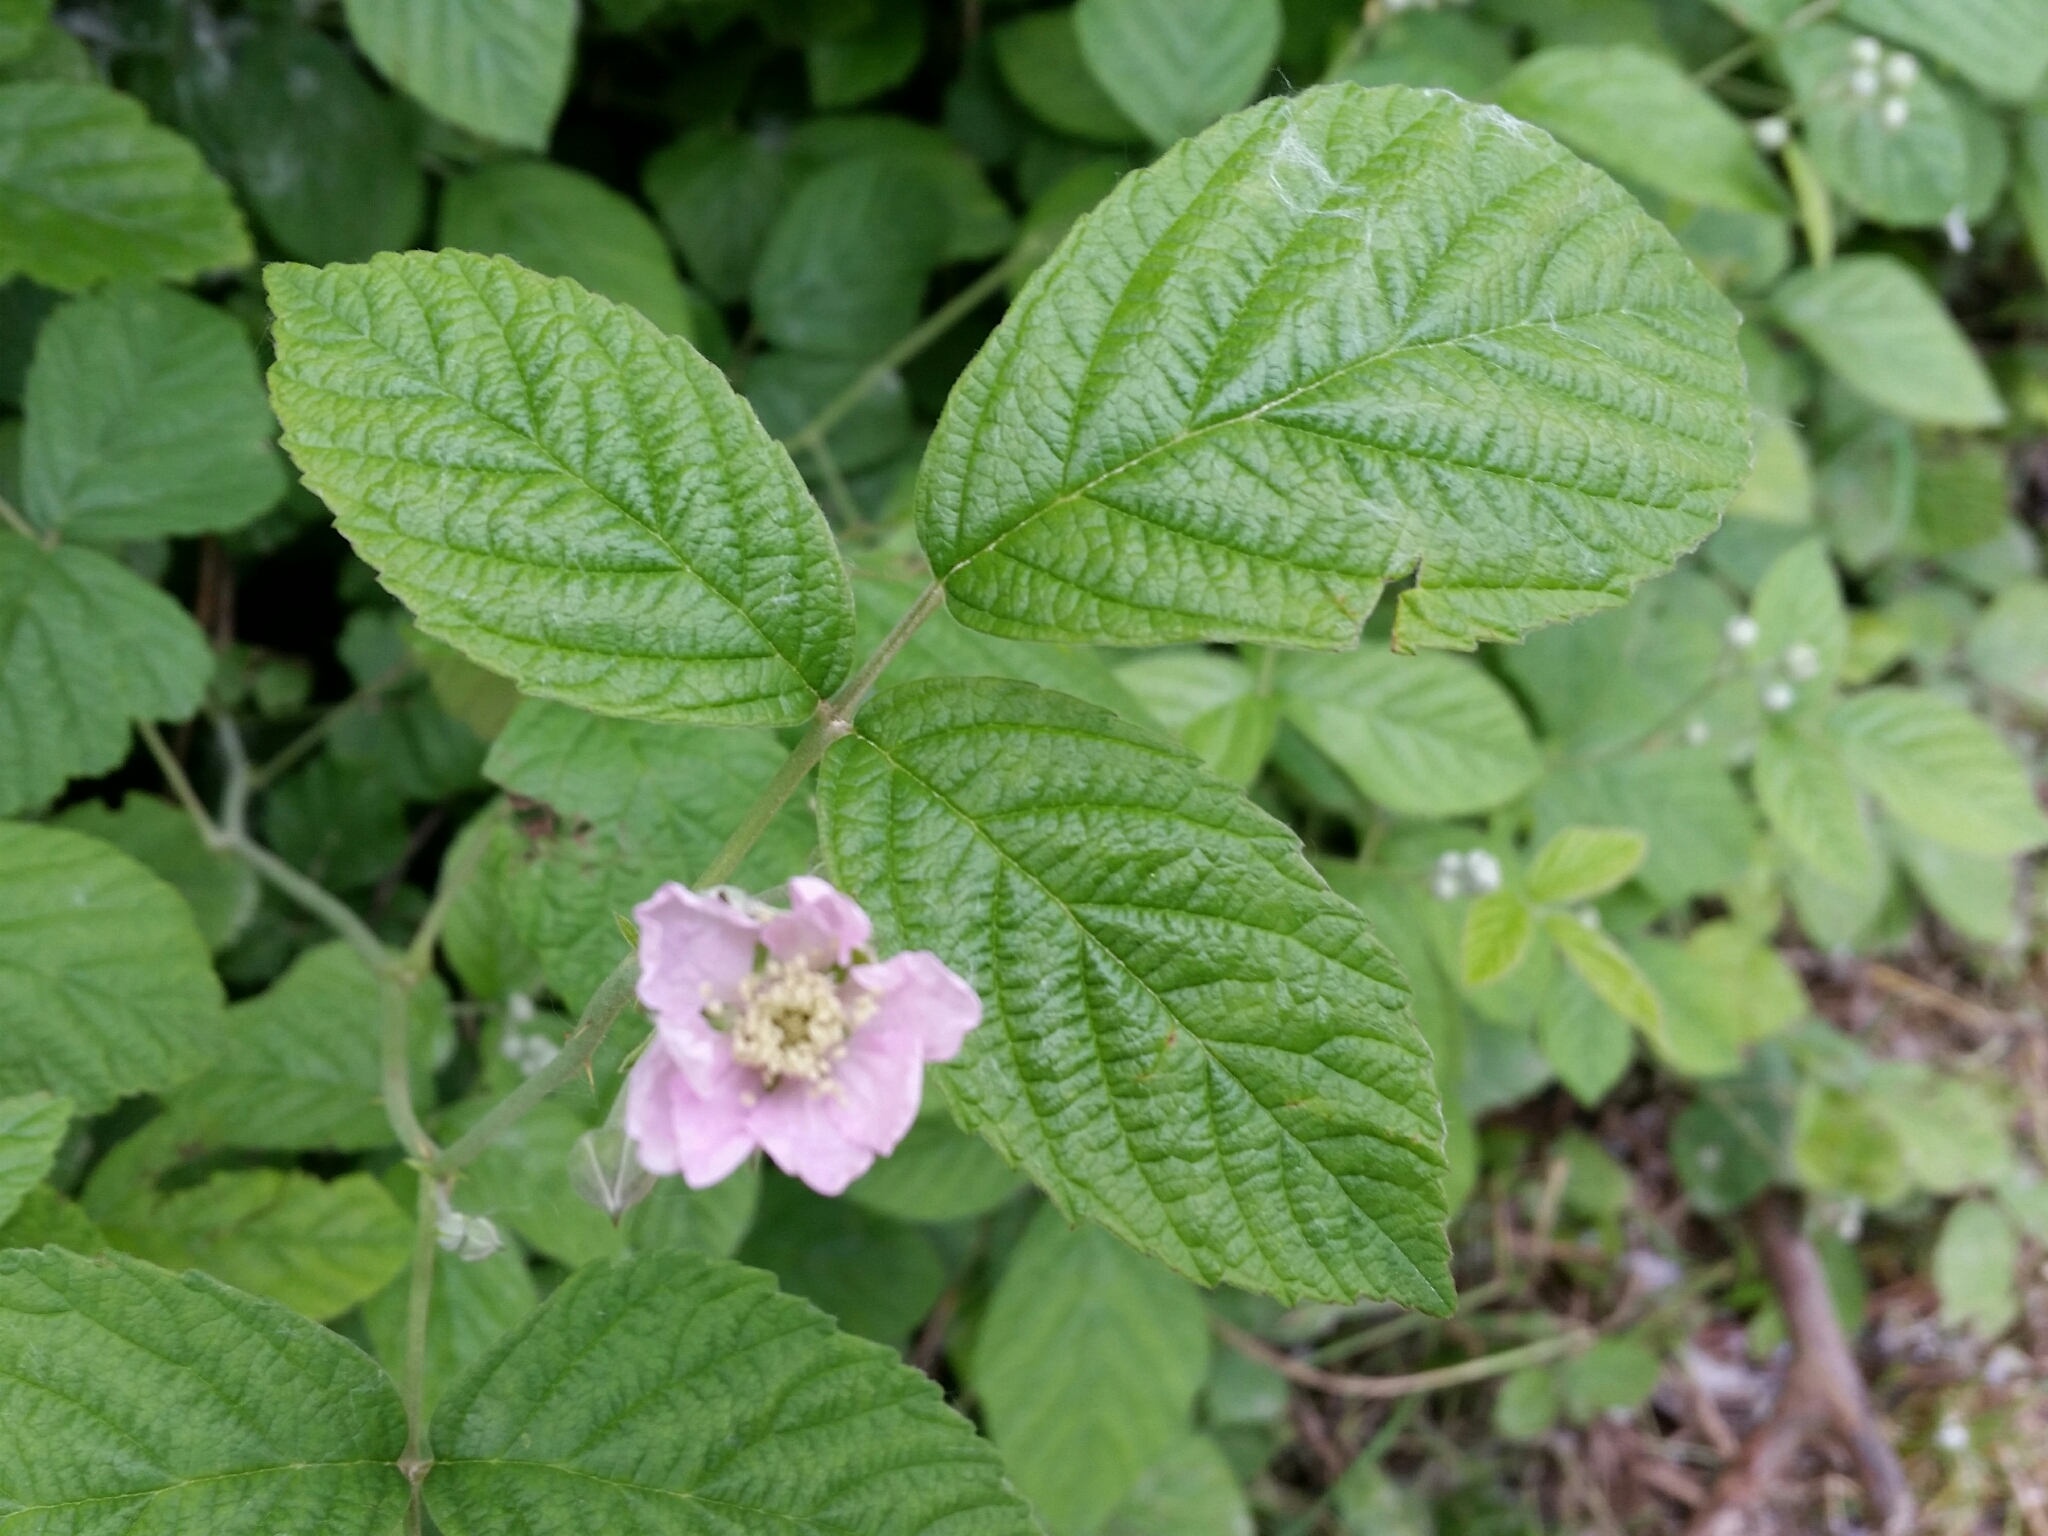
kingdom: Plantae
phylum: Tracheophyta
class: Magnoliopsida
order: Rosales
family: Rosaceae
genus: Rubus
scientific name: Rubus ulmifolius
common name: Elmleaf blackberry
